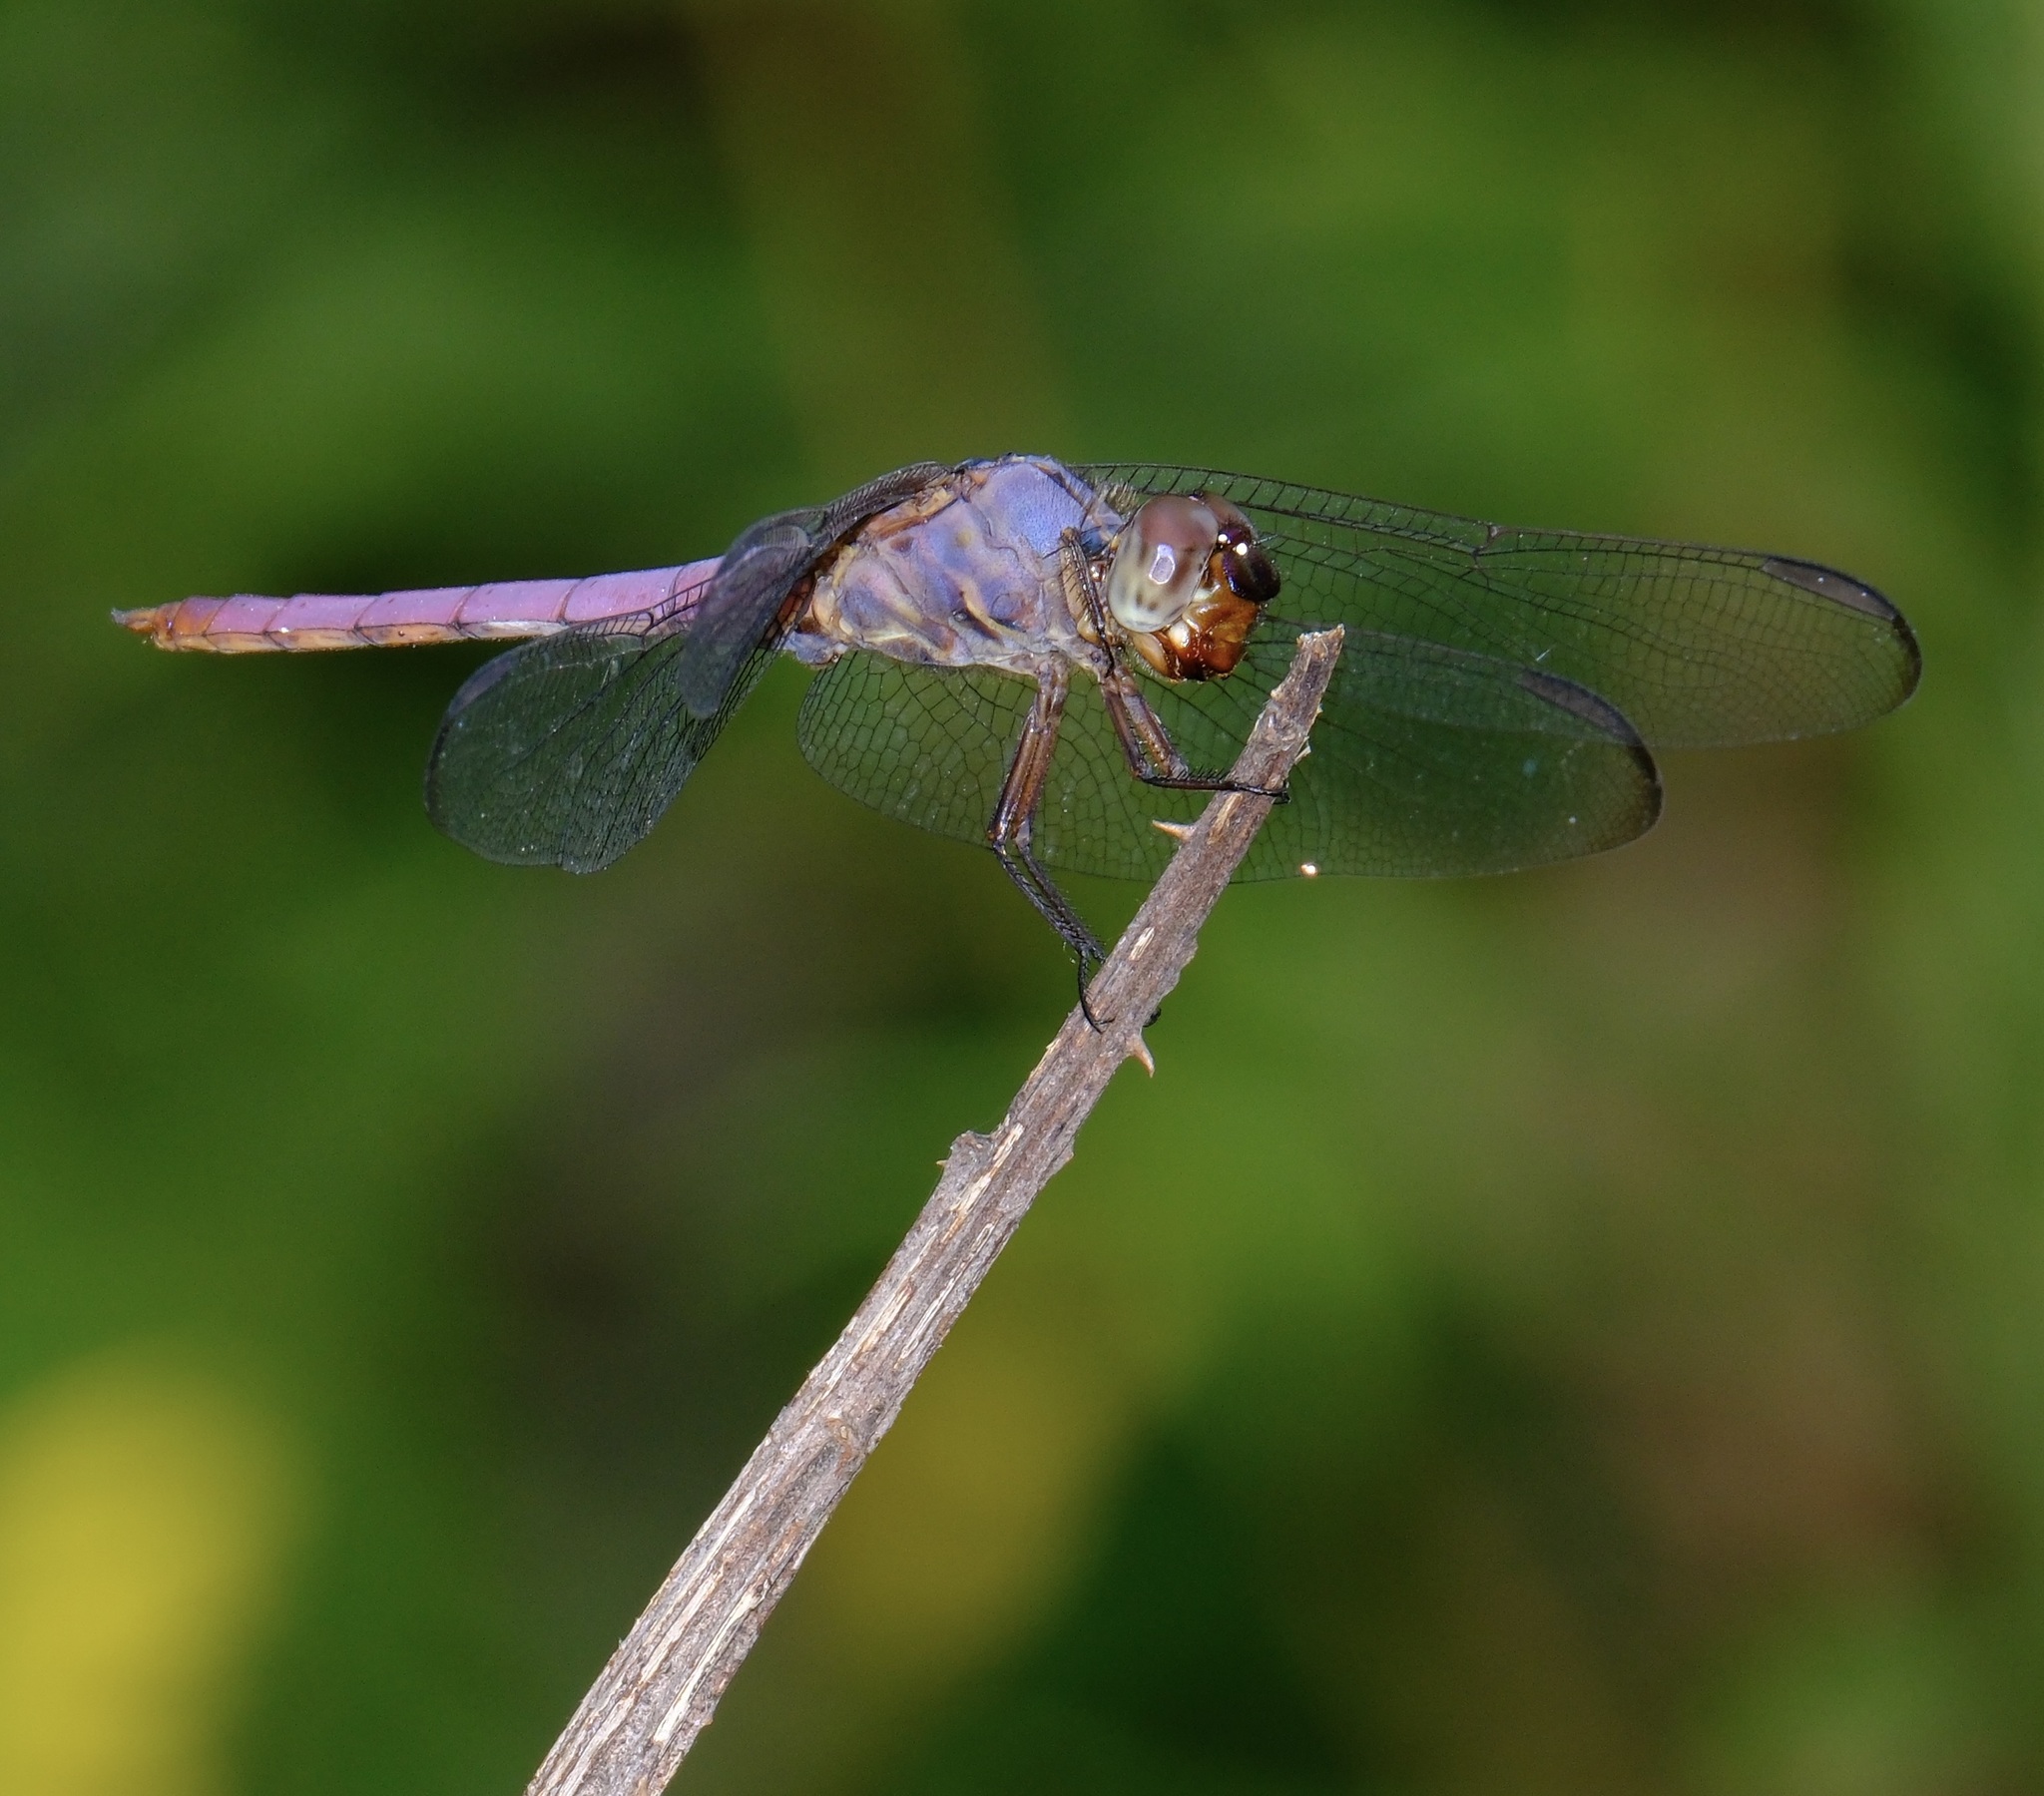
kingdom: Animalia
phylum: Arthropoda
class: Insecta
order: Odonata
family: Libellulidae
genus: Orthemis
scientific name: Orthemis ferruginea
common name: Roseate skimmer
